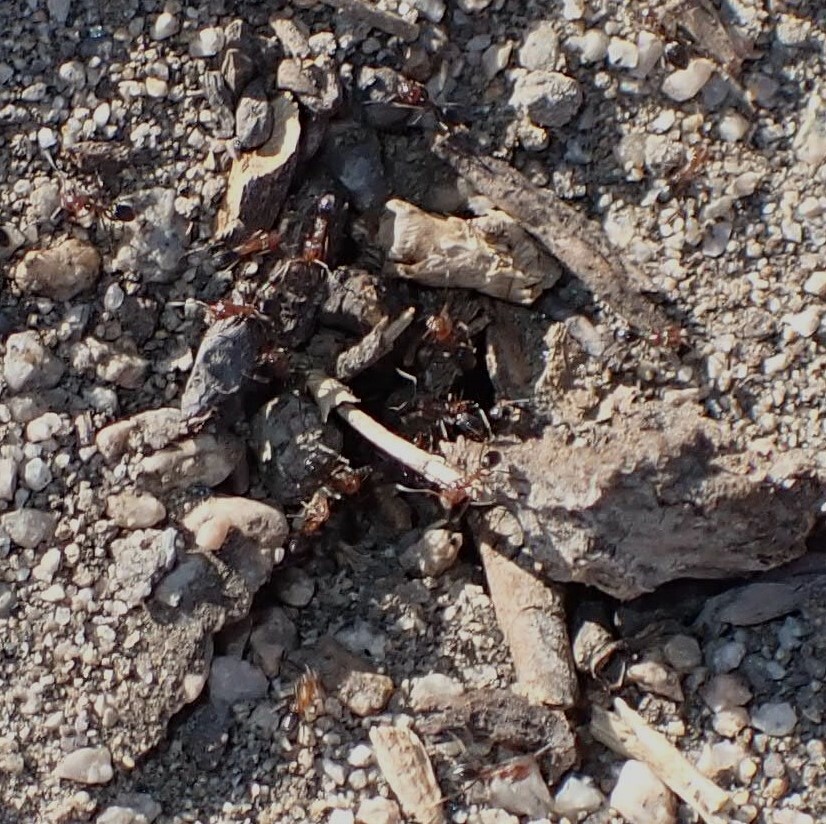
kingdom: Animalia
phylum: Arthropoda
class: Insecta
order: Hymenoptera
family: Formicidae
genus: Dorymyrmex
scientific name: Dorymyrmex bicolor
